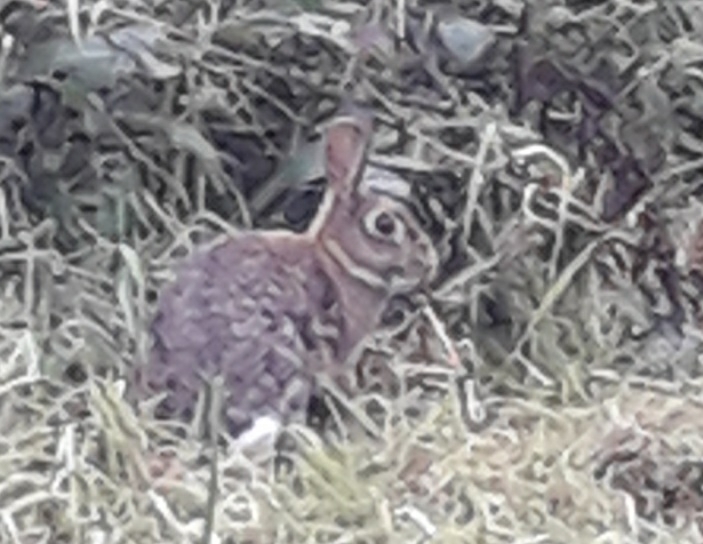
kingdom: Animalia
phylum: Chordata
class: Mammalia
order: Lagomorpha
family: Leporidae
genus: Oryctolagus
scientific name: Oryctolagus cuniculus
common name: European rabbit
